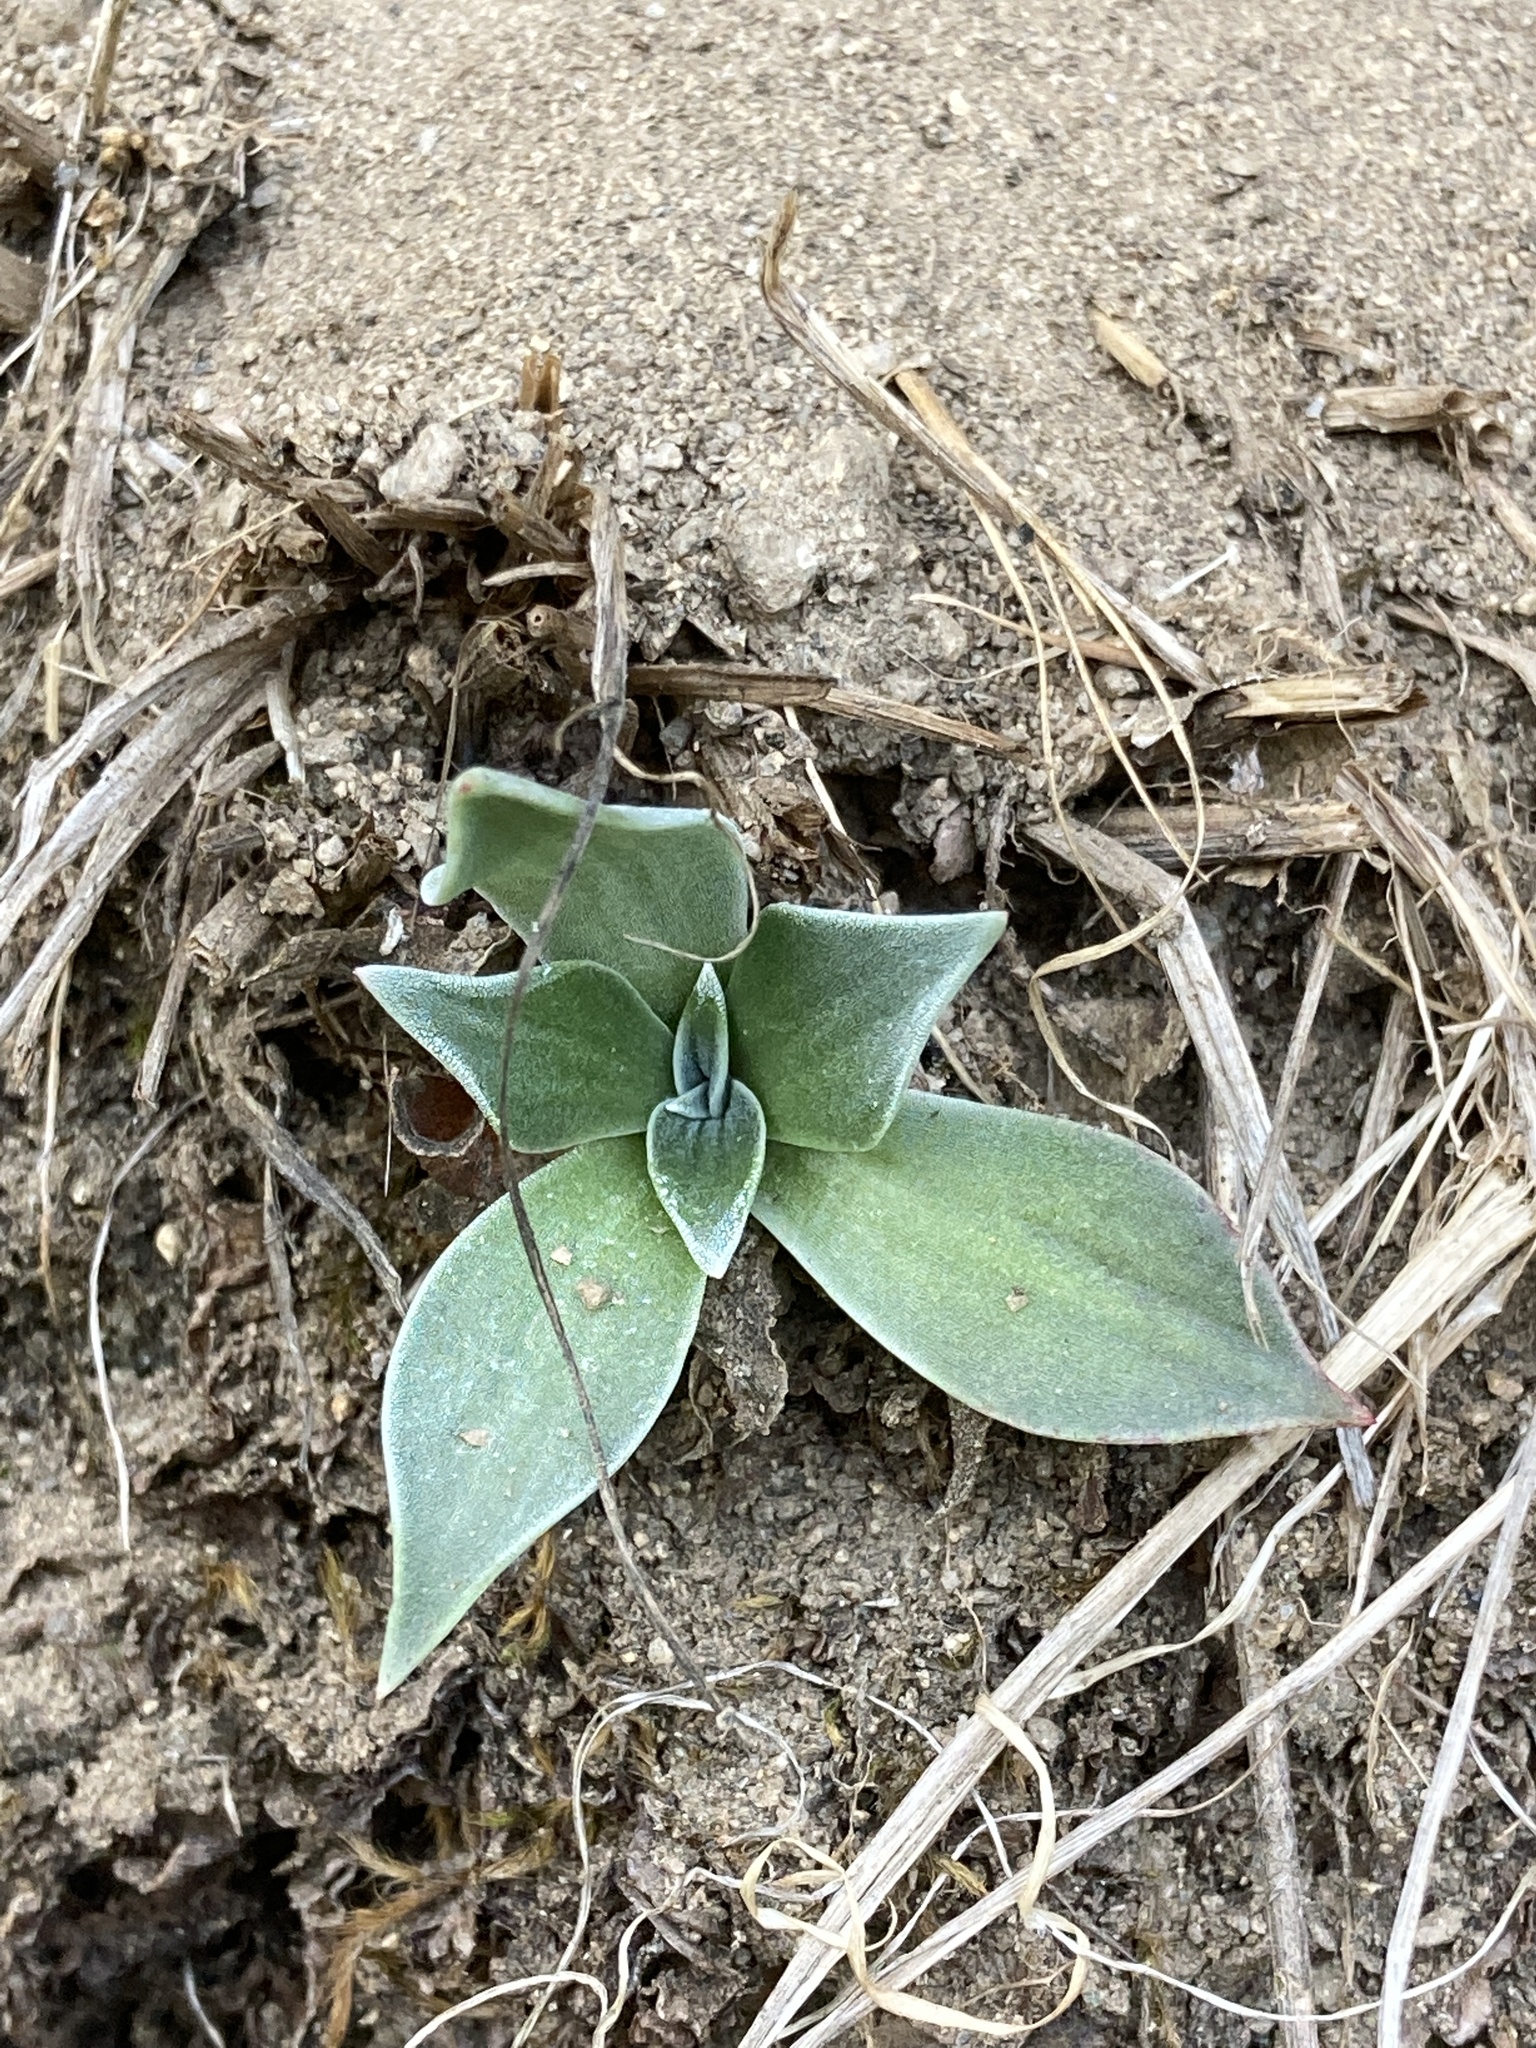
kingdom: Plantae
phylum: Tracheophyta
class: Magnoliopsida
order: Saxifragales
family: Crassulaceae
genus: Dudleya
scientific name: Dudleya cymosa
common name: Canyon dudleya
